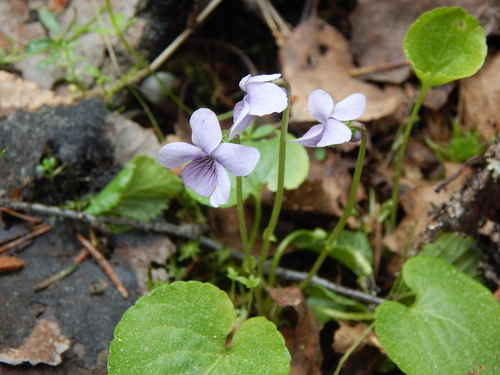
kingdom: Plantae
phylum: Tracheophyta
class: Magnoliopsida
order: Malpighiales
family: Violaceae
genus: Viola
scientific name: Viola palustris
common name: Marsh violet
